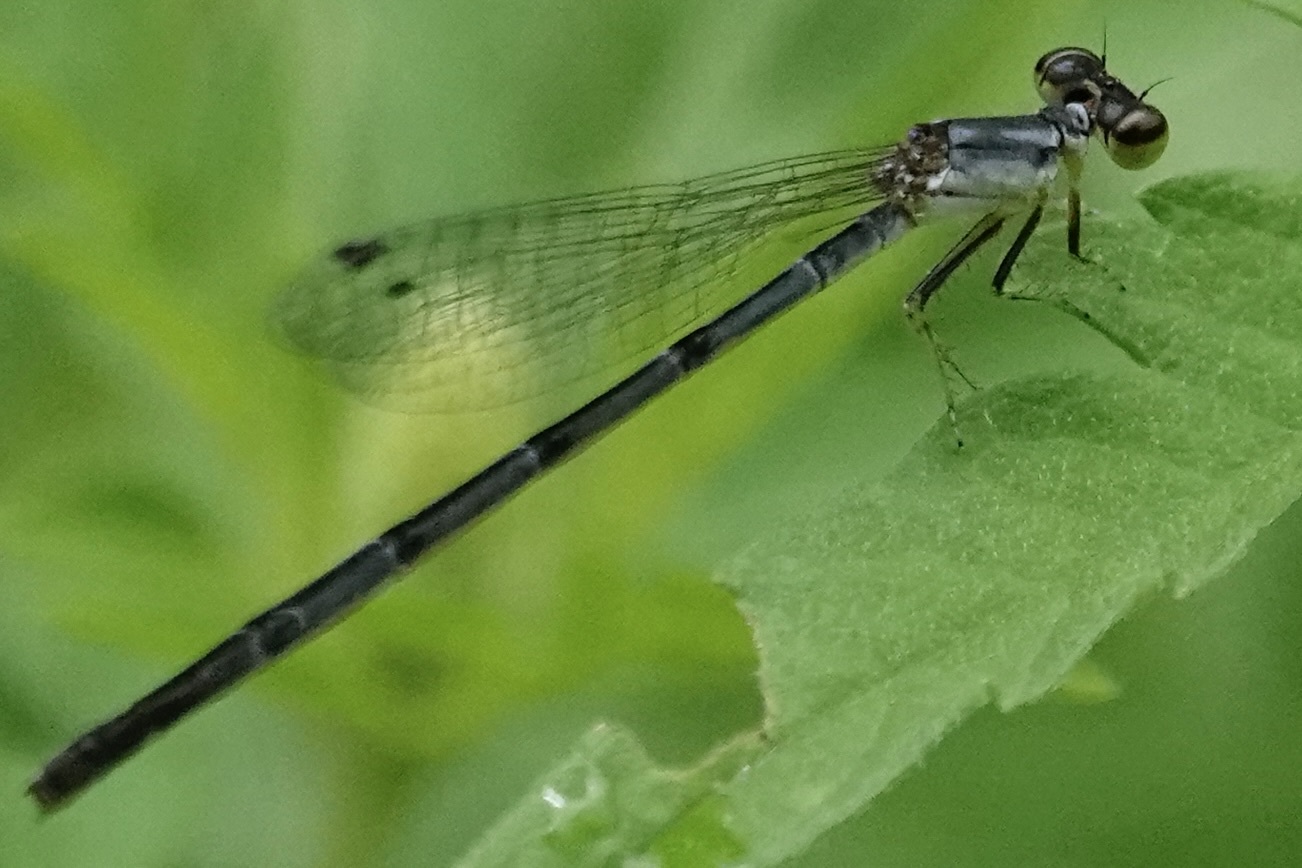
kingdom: Animalia
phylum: Arthropoda
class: Insecta
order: Odonata
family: Coenagrionidae
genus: Ischnura
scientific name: Ischnura posita
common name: Fragile forktail
